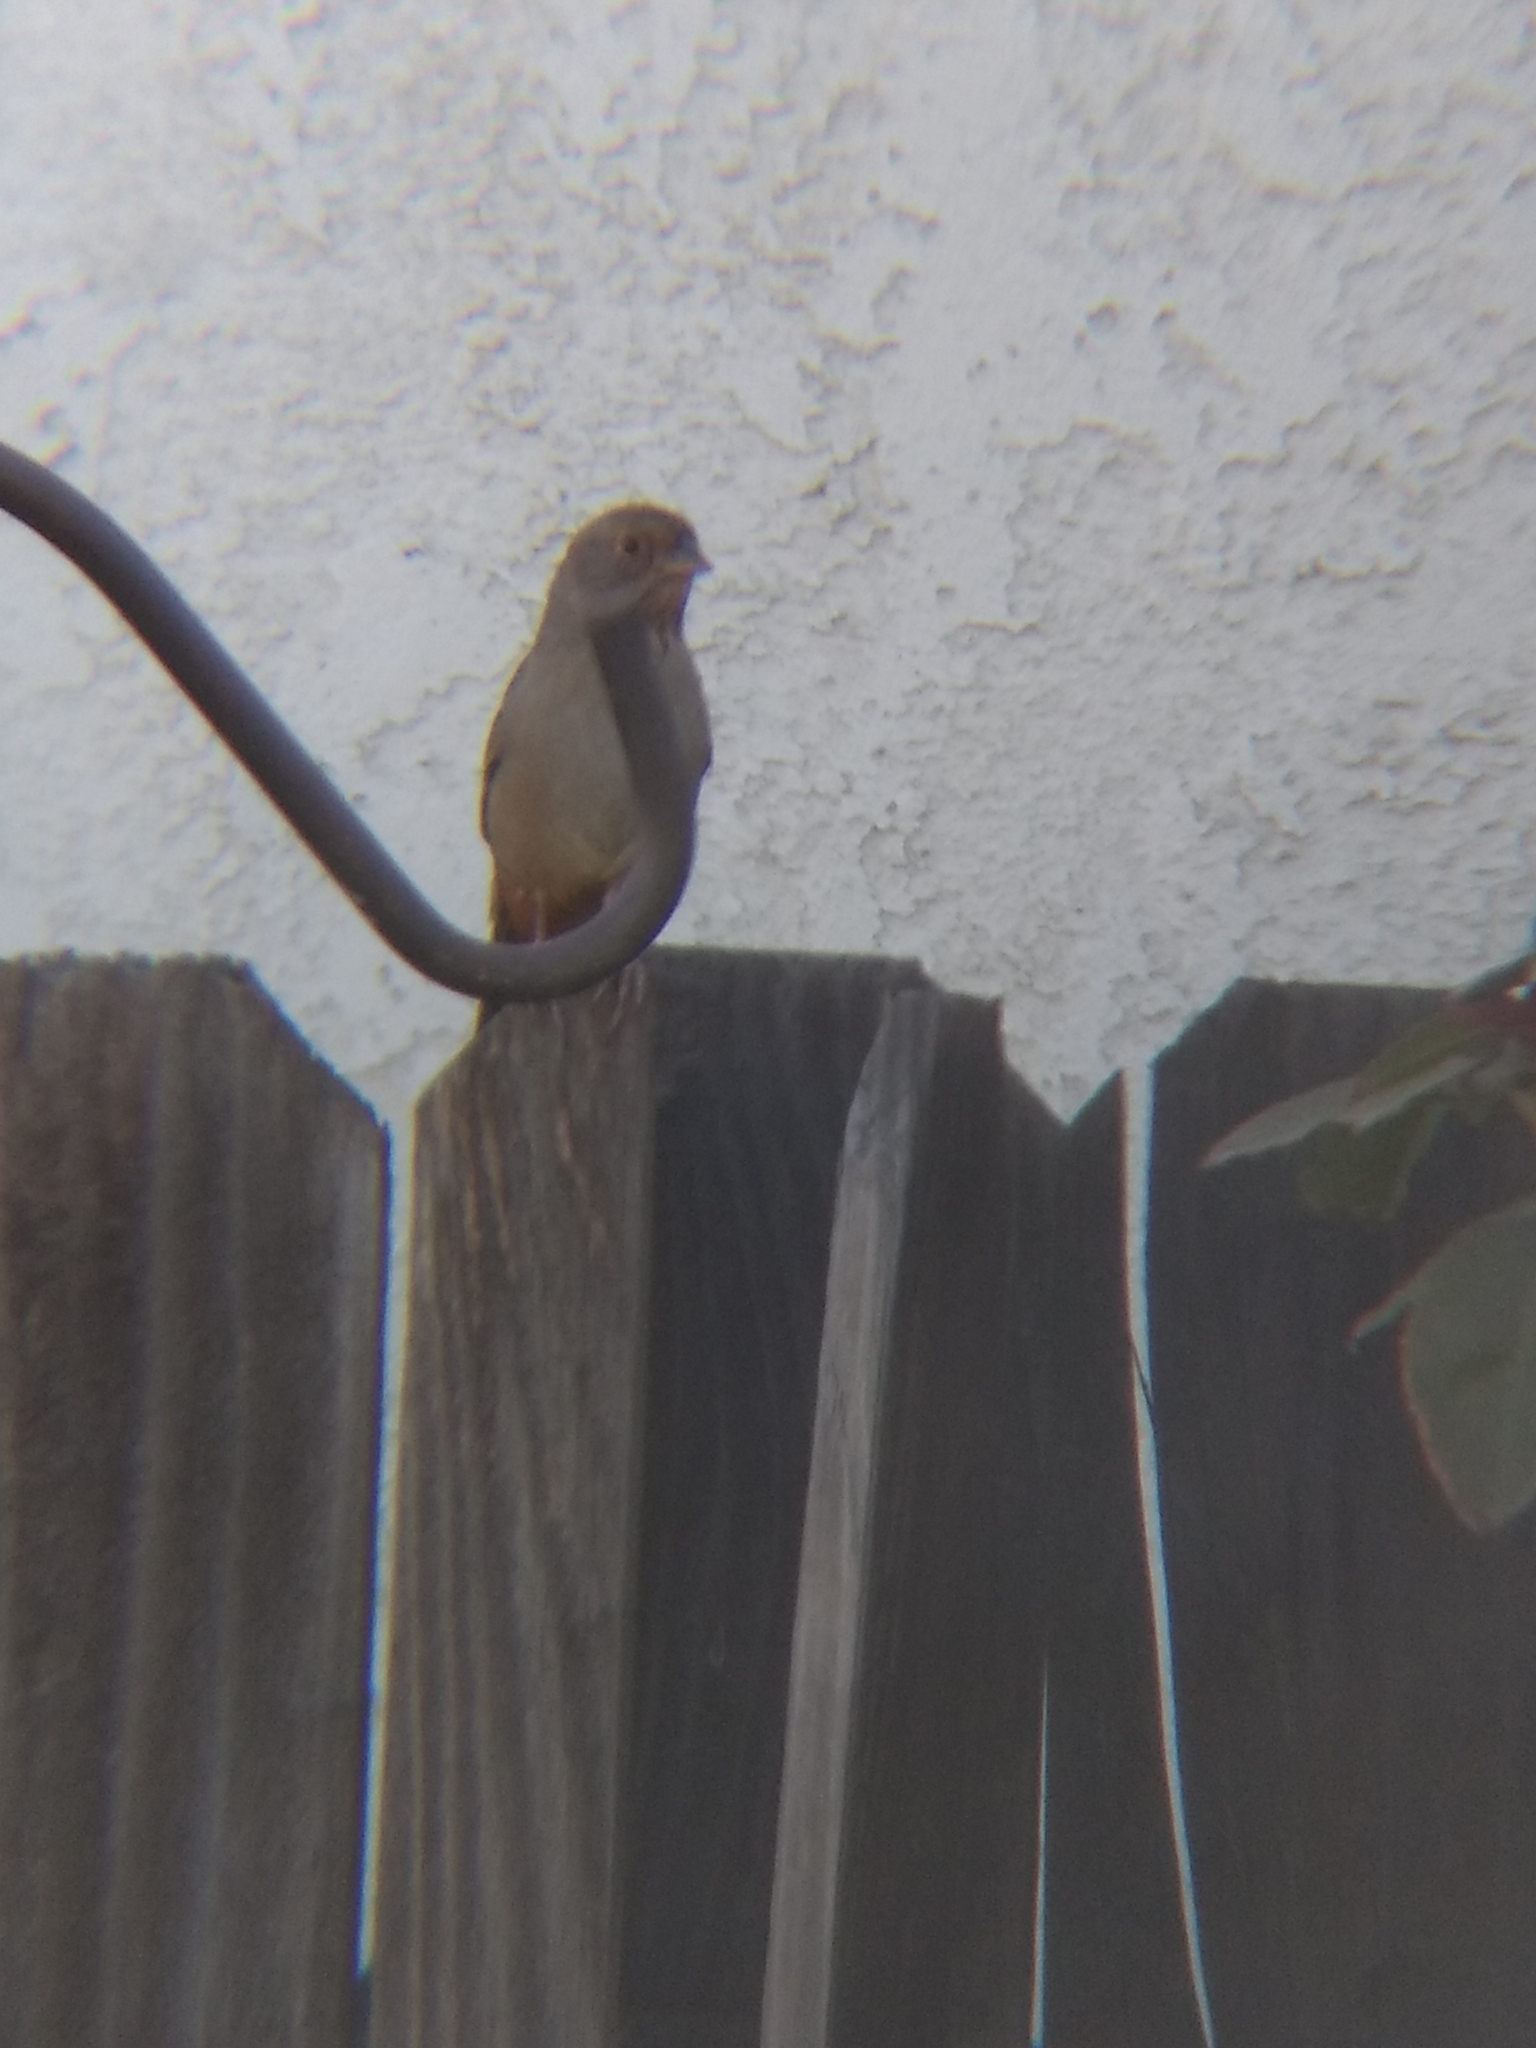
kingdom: Animalia
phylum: Chordata
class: Aves
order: Passeriformes
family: Passerellidae
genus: Melozone
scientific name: Melozone crissalis
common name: California towhee
